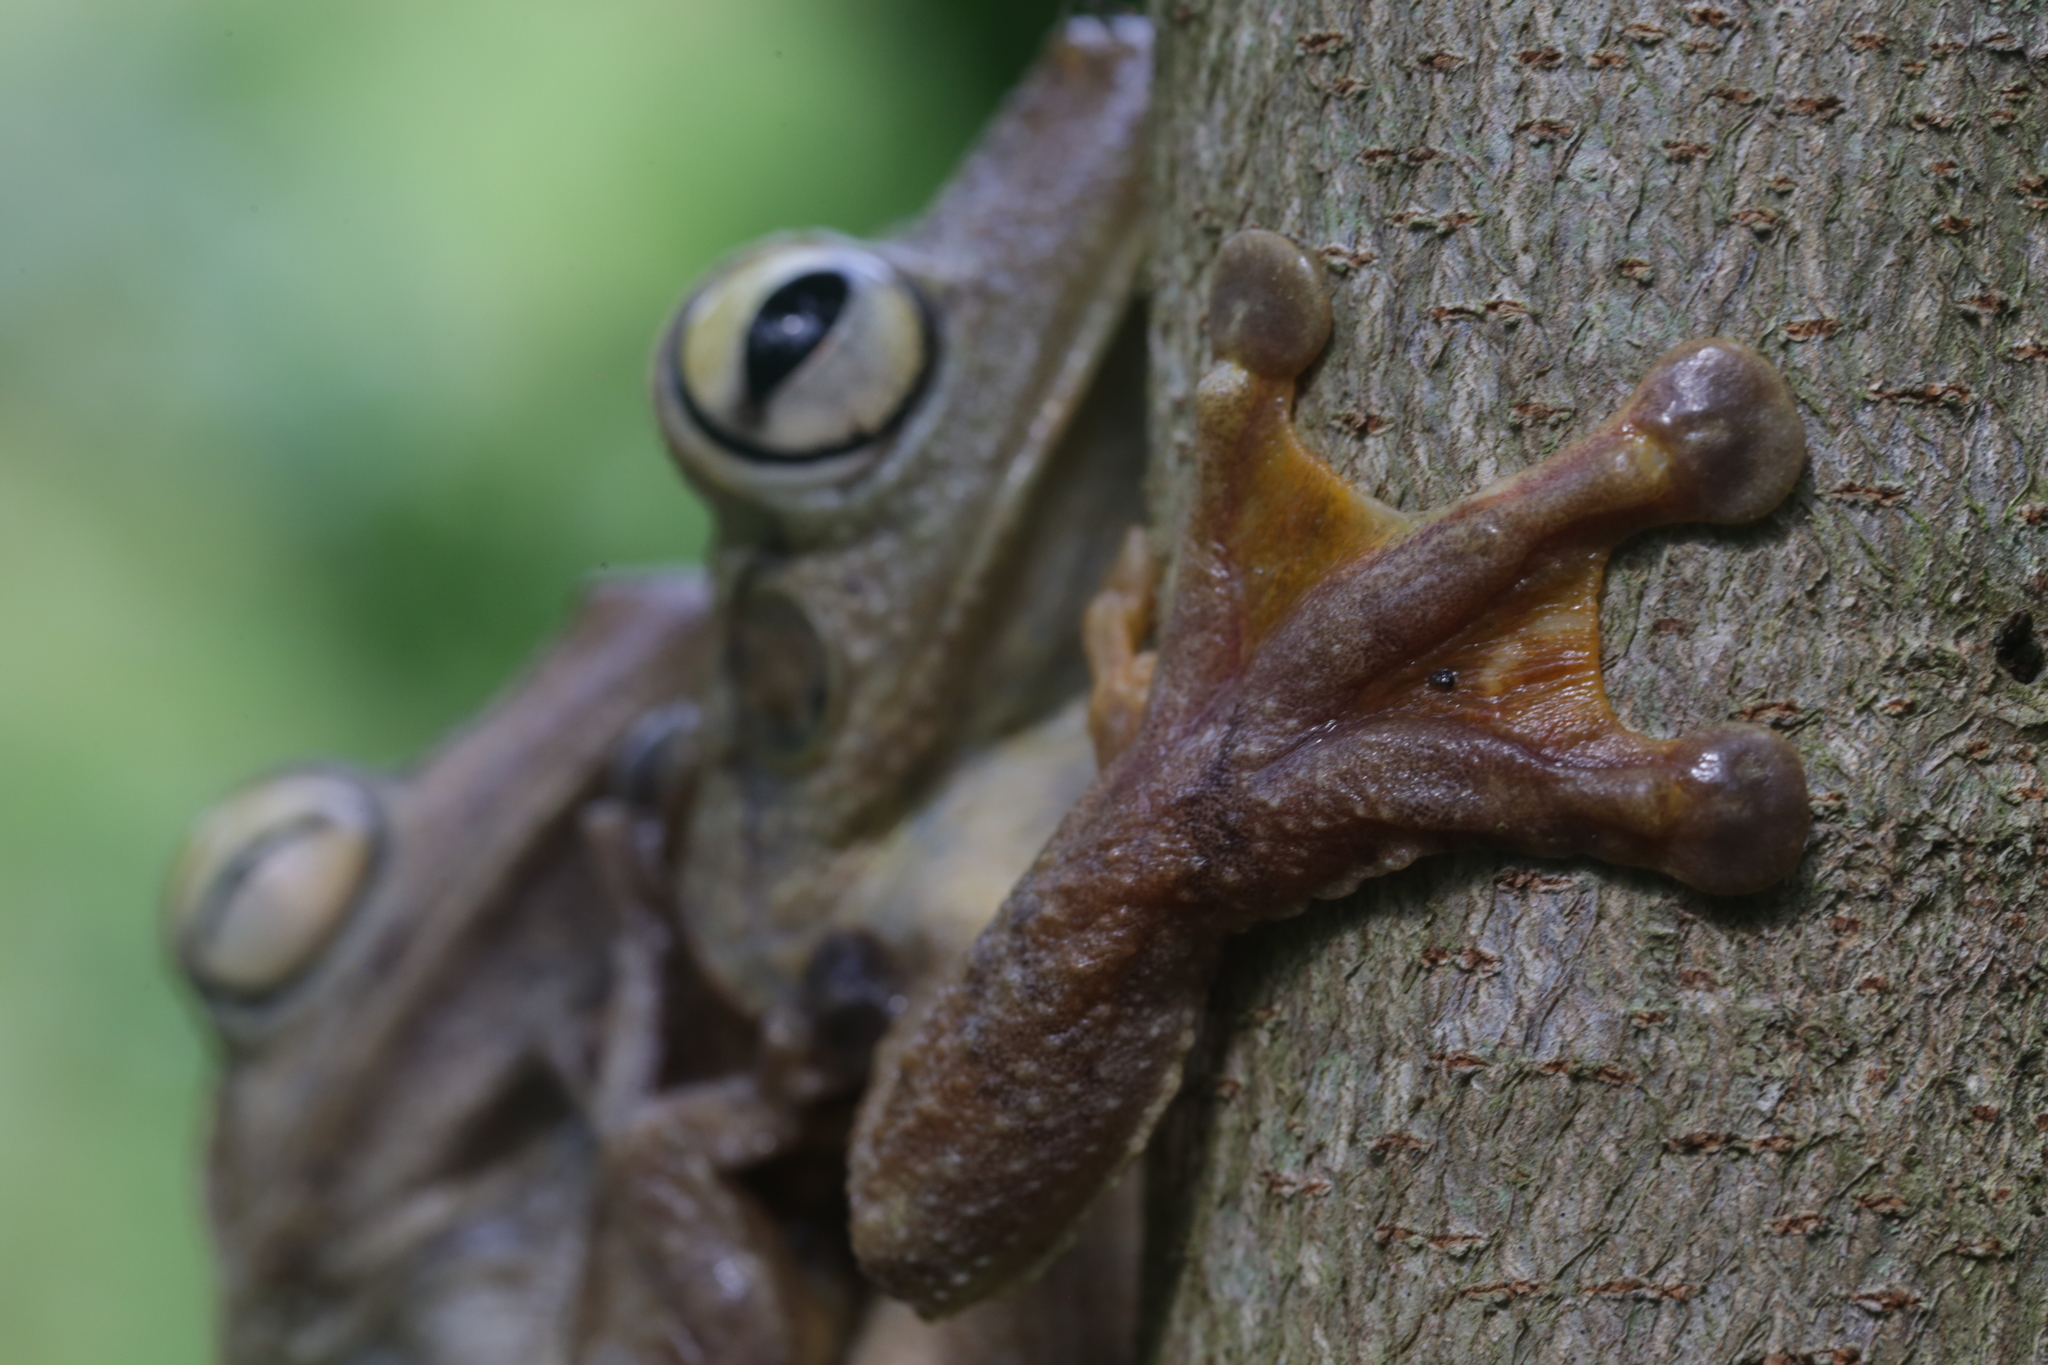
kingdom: Animalia
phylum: Chordata
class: Amphibia
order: Anura
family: Hylidae
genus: Boana
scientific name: Boana rosenbergi
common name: Rosenberg´s gladiator treefrog
